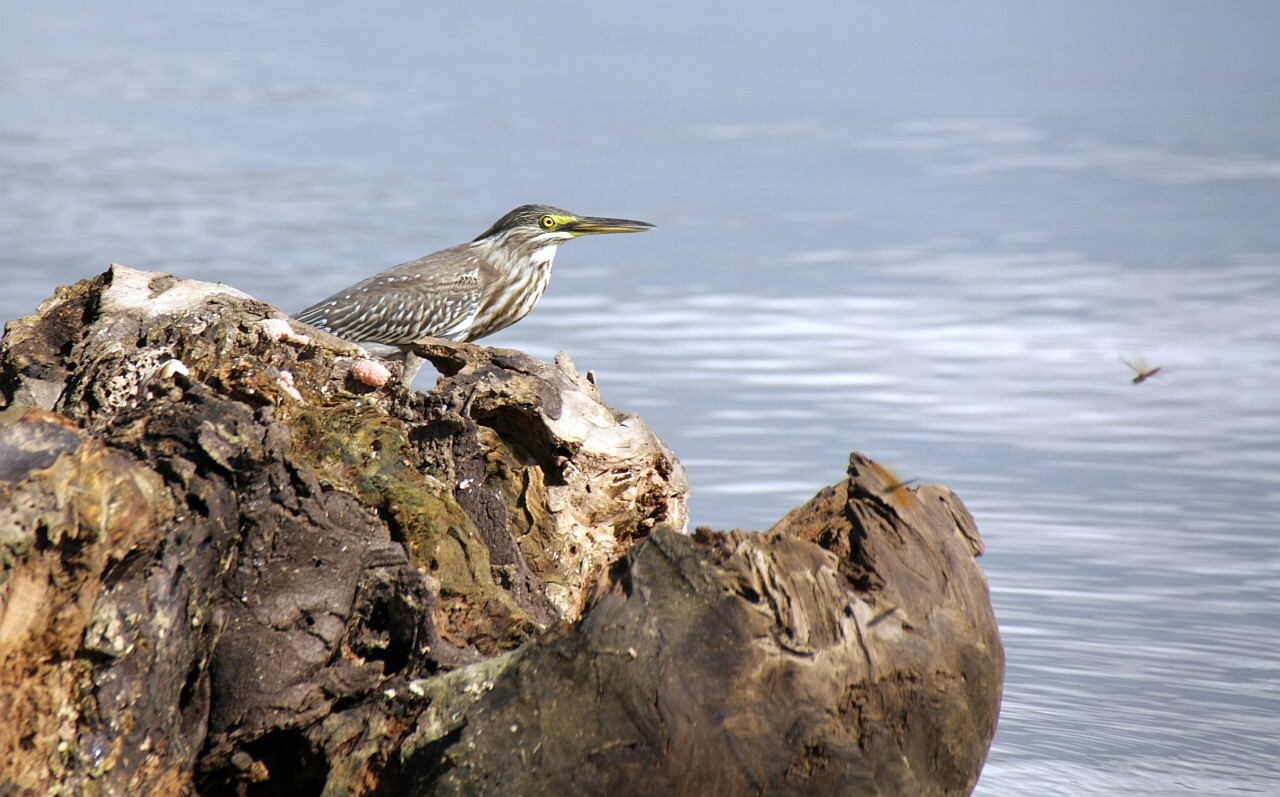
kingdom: Animalia
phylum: Chordata
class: Aves
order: Pelecaniformes
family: Ardeidae
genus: Butorides
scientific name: Butorides striata
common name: Striated heron
